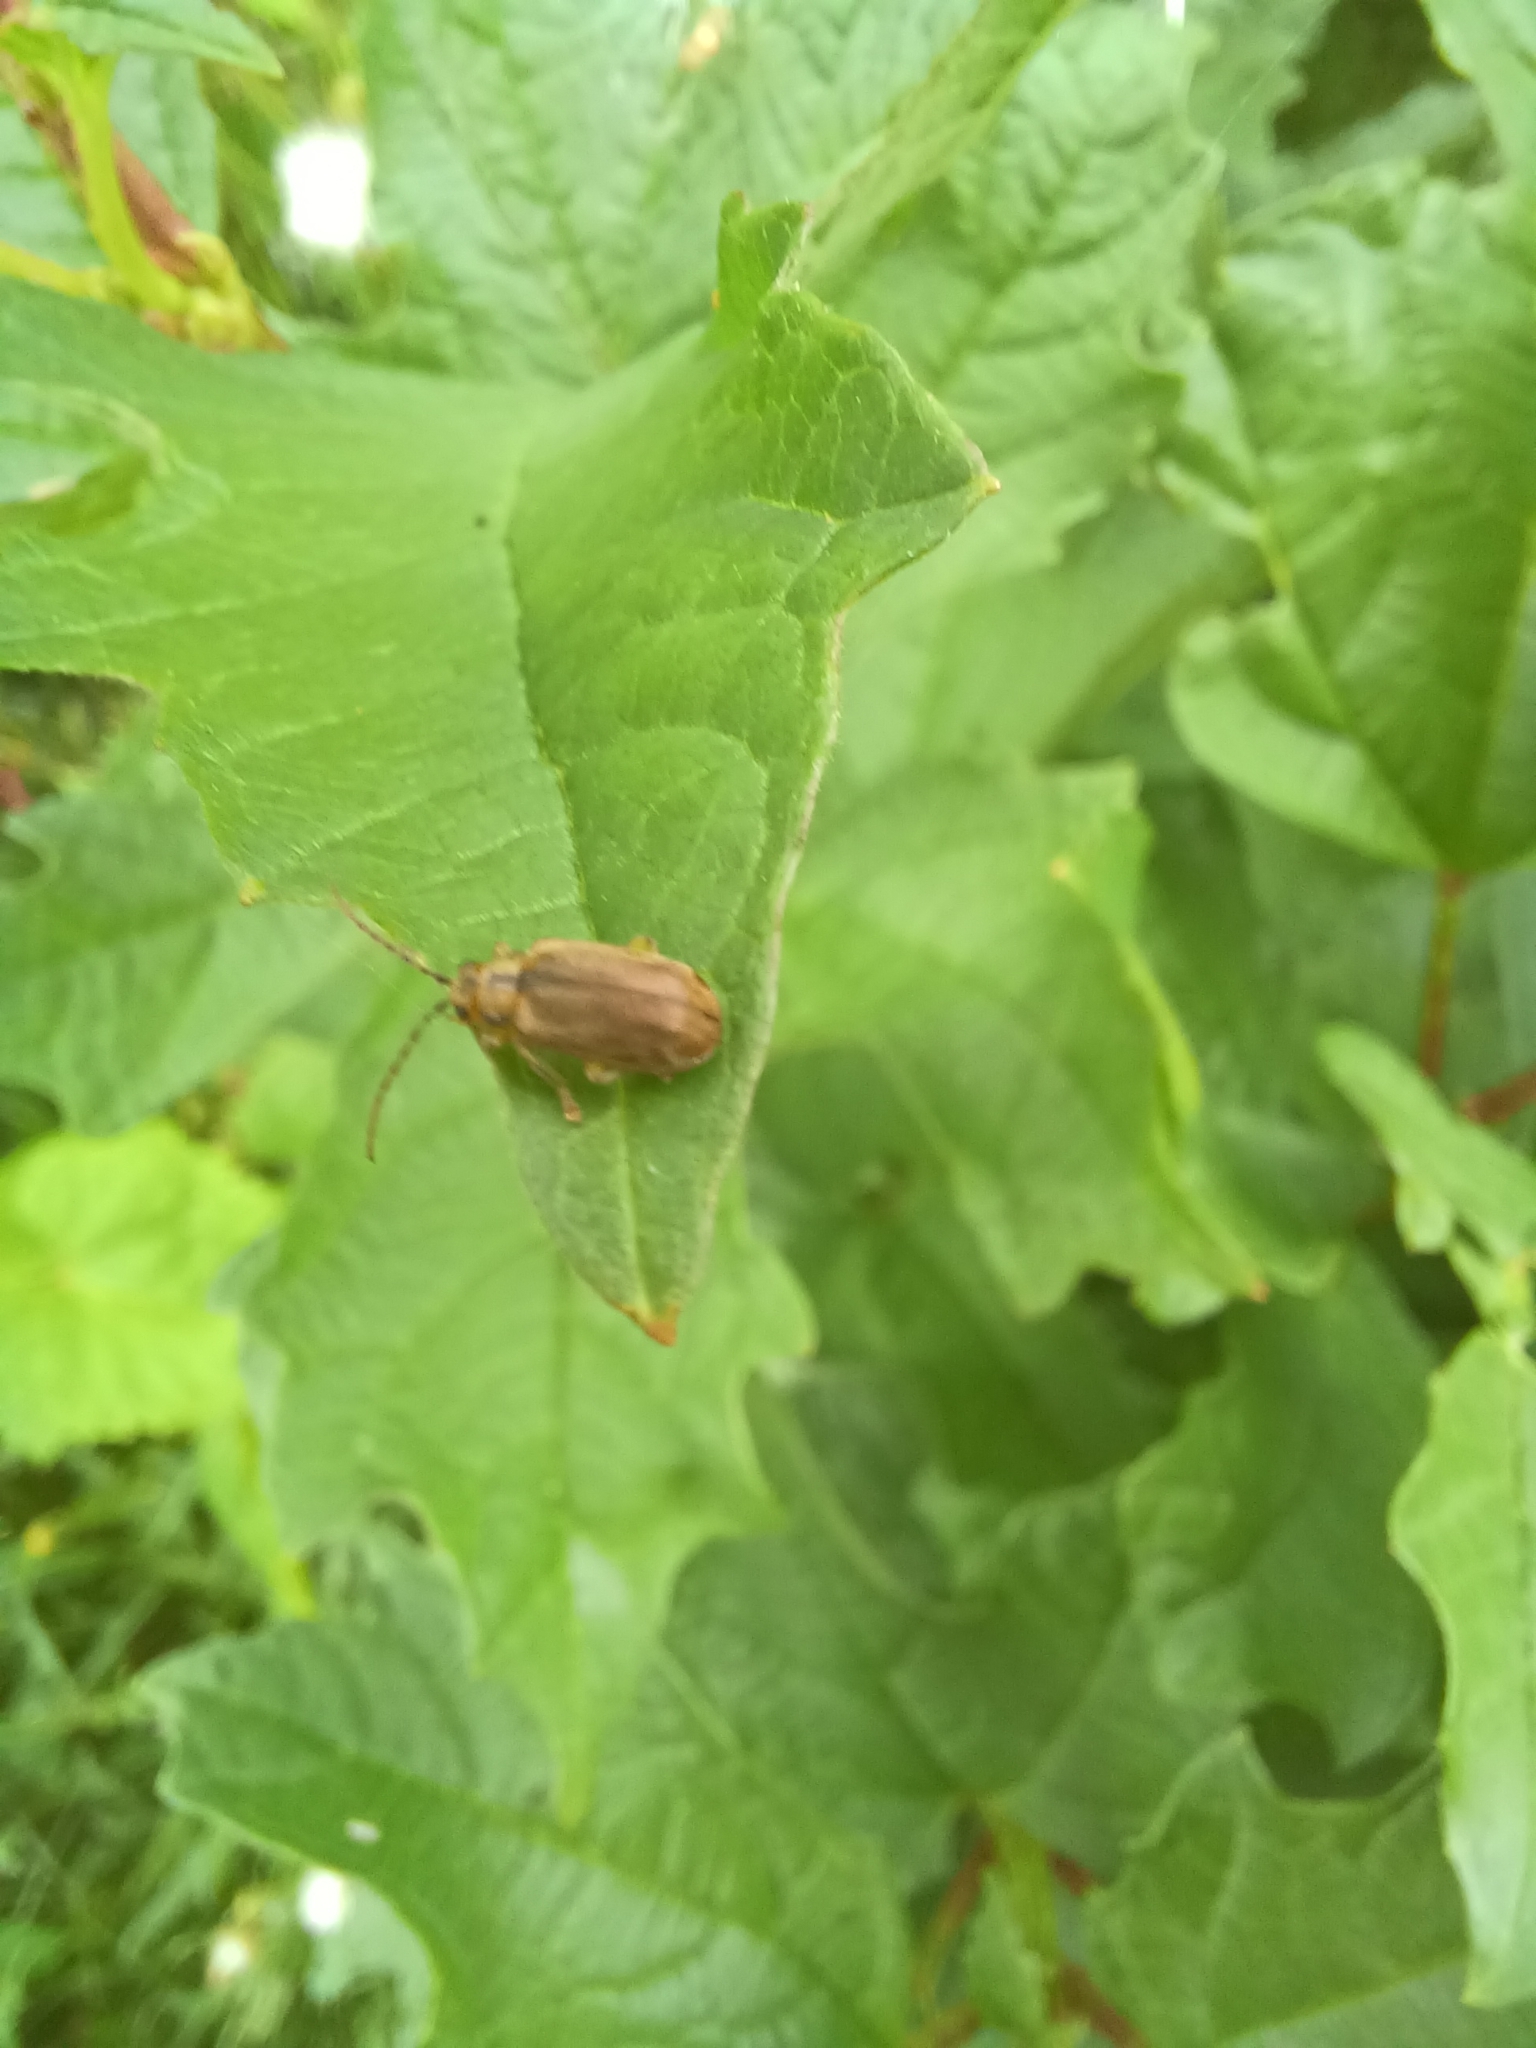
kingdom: Animalia
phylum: Arthropoda
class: Insecta
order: Coleoptera
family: Chrysomelidae
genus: Pyrrhalta
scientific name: Pyrrhalta viburni
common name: Guelder-rose leaf beetle
